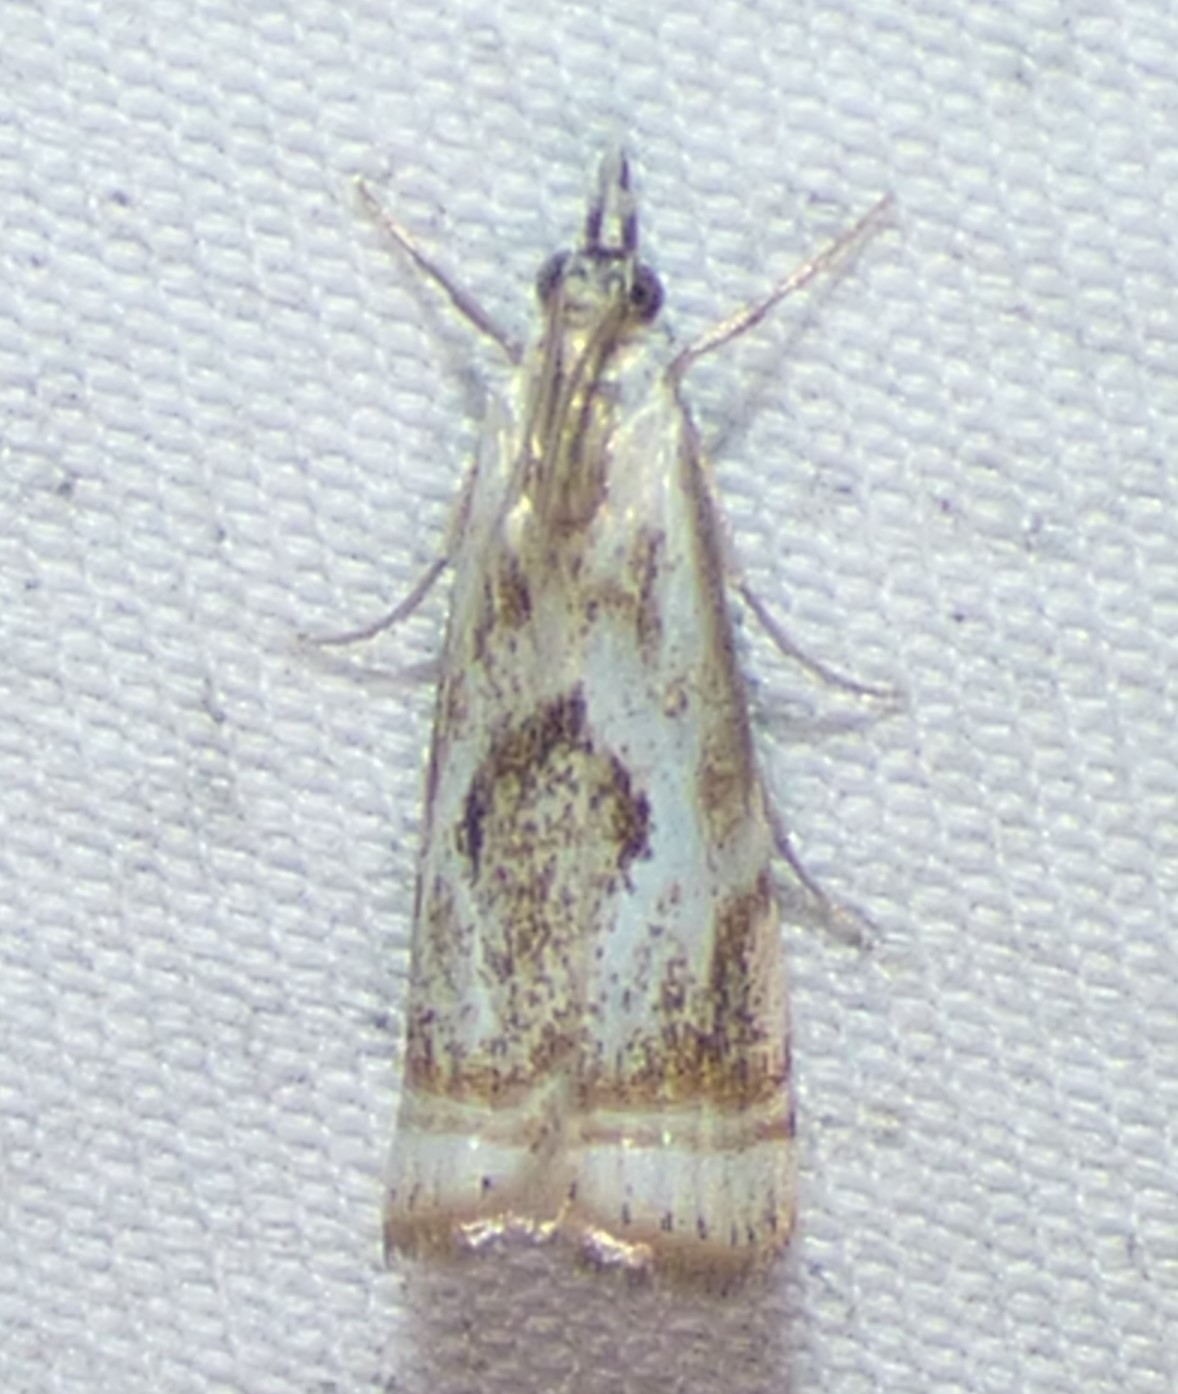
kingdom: Animalia
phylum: Arthropoda
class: Insecta
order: Lepidoptera
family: Crambidae
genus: Microcrambus
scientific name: Microcrambus elegans
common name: Elegant grass-veneer
